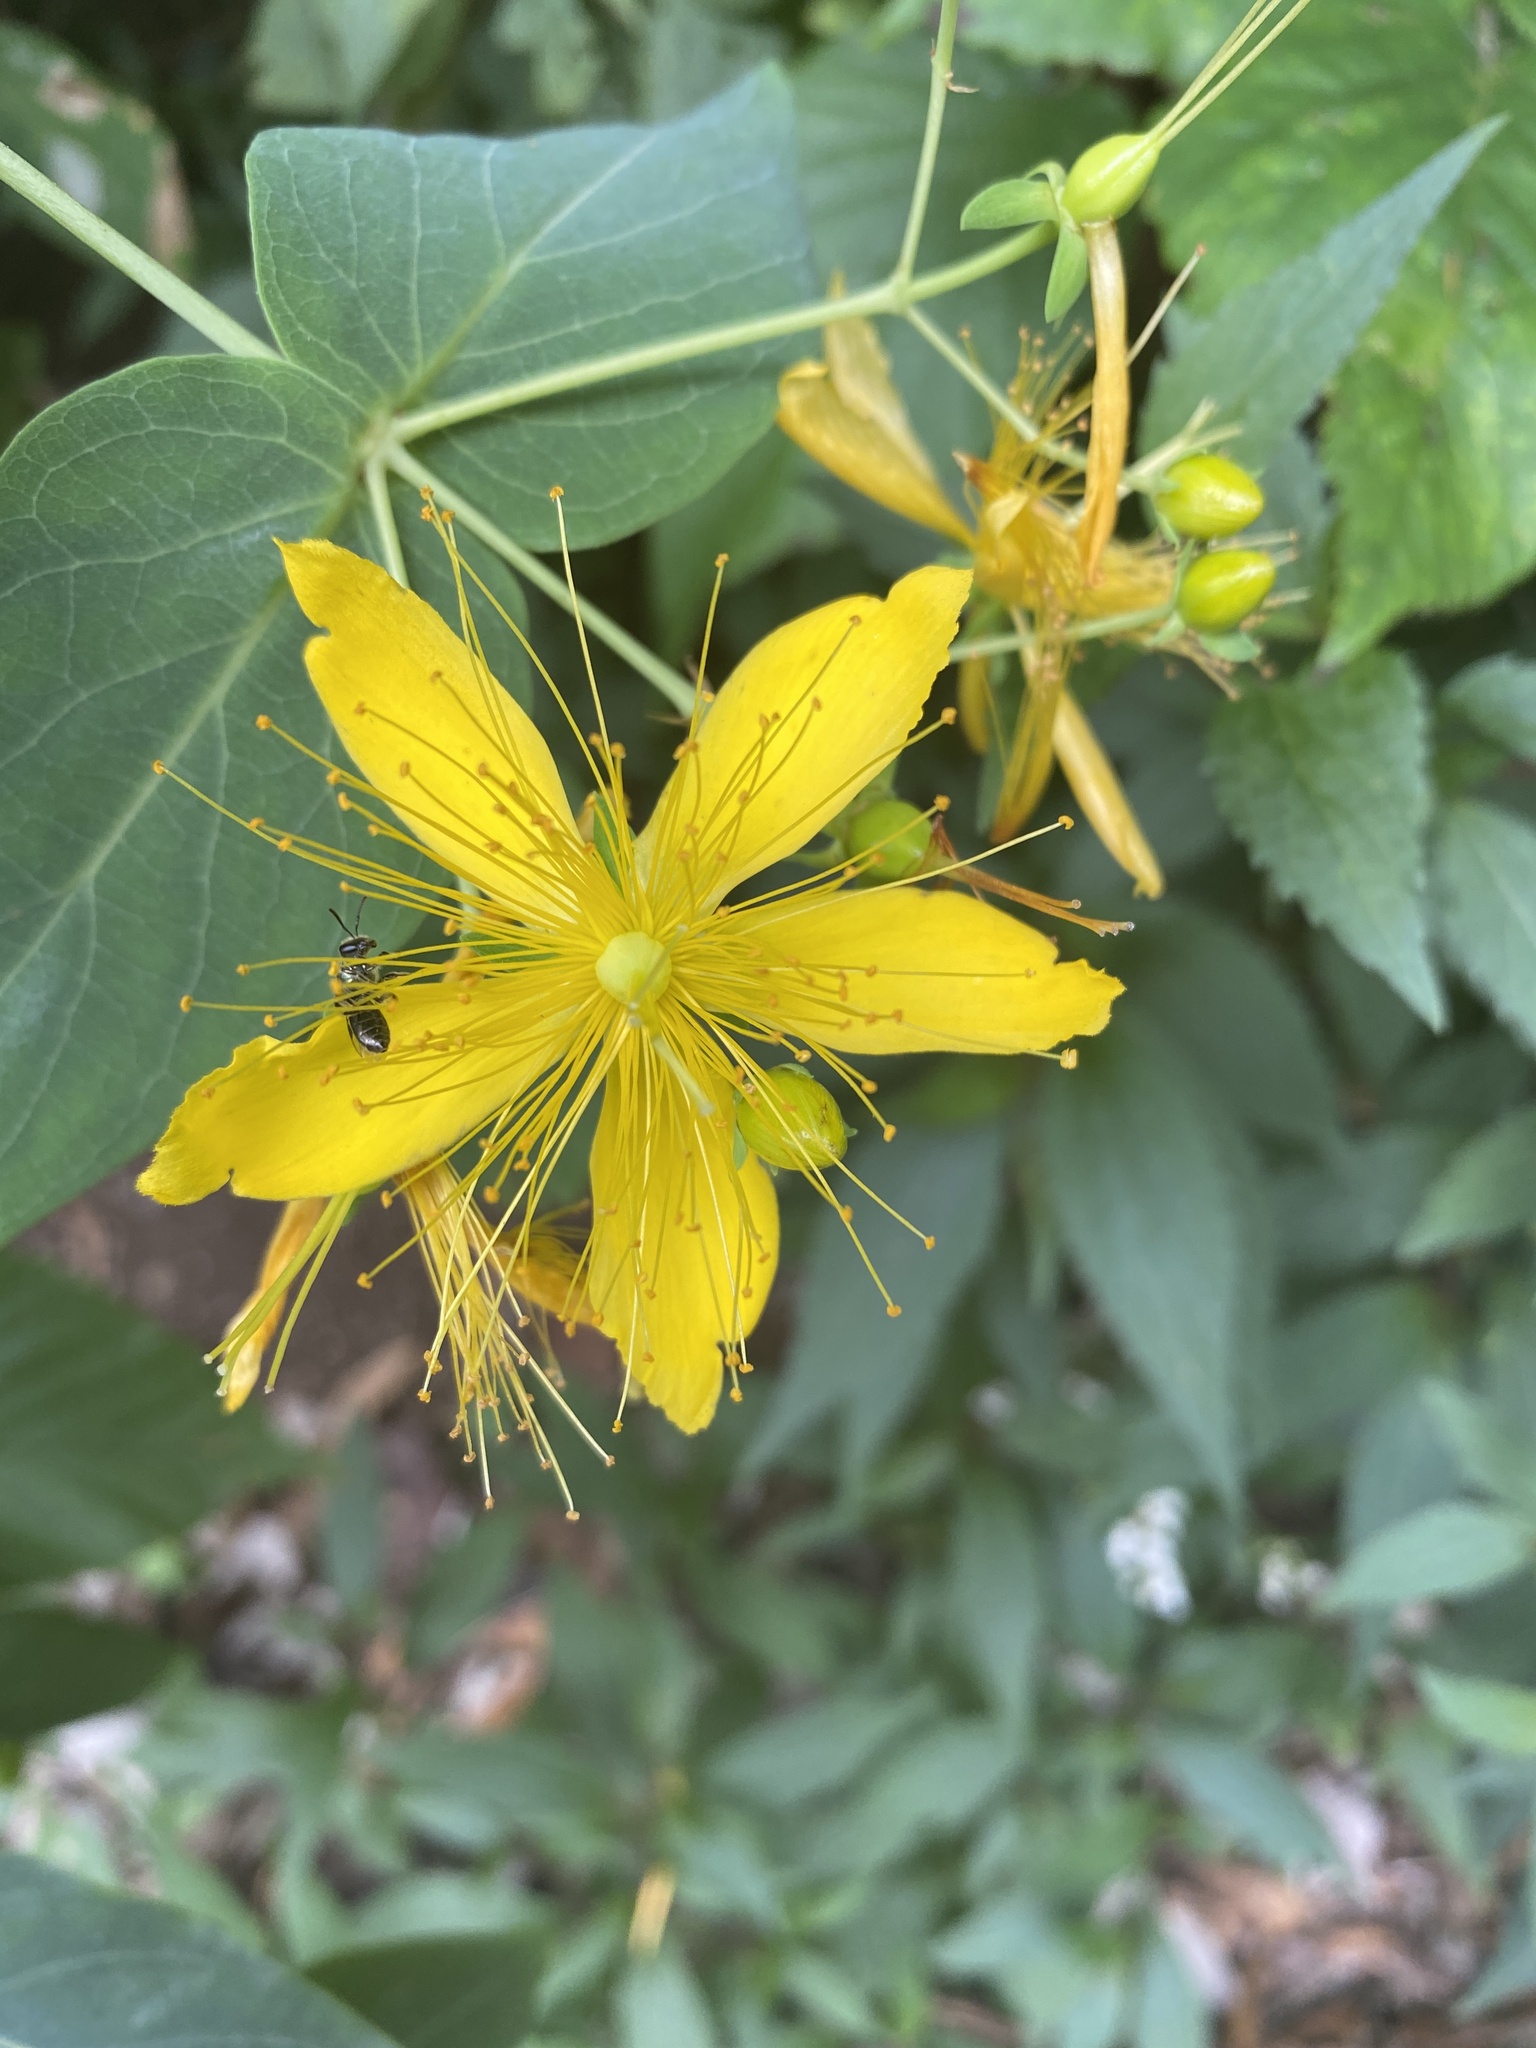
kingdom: Plantae
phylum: Tracheophyta
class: Magnoliopsida
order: Malpighiales
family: Hypericaceae
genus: Hypericum
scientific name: Hypericum grandifolium
